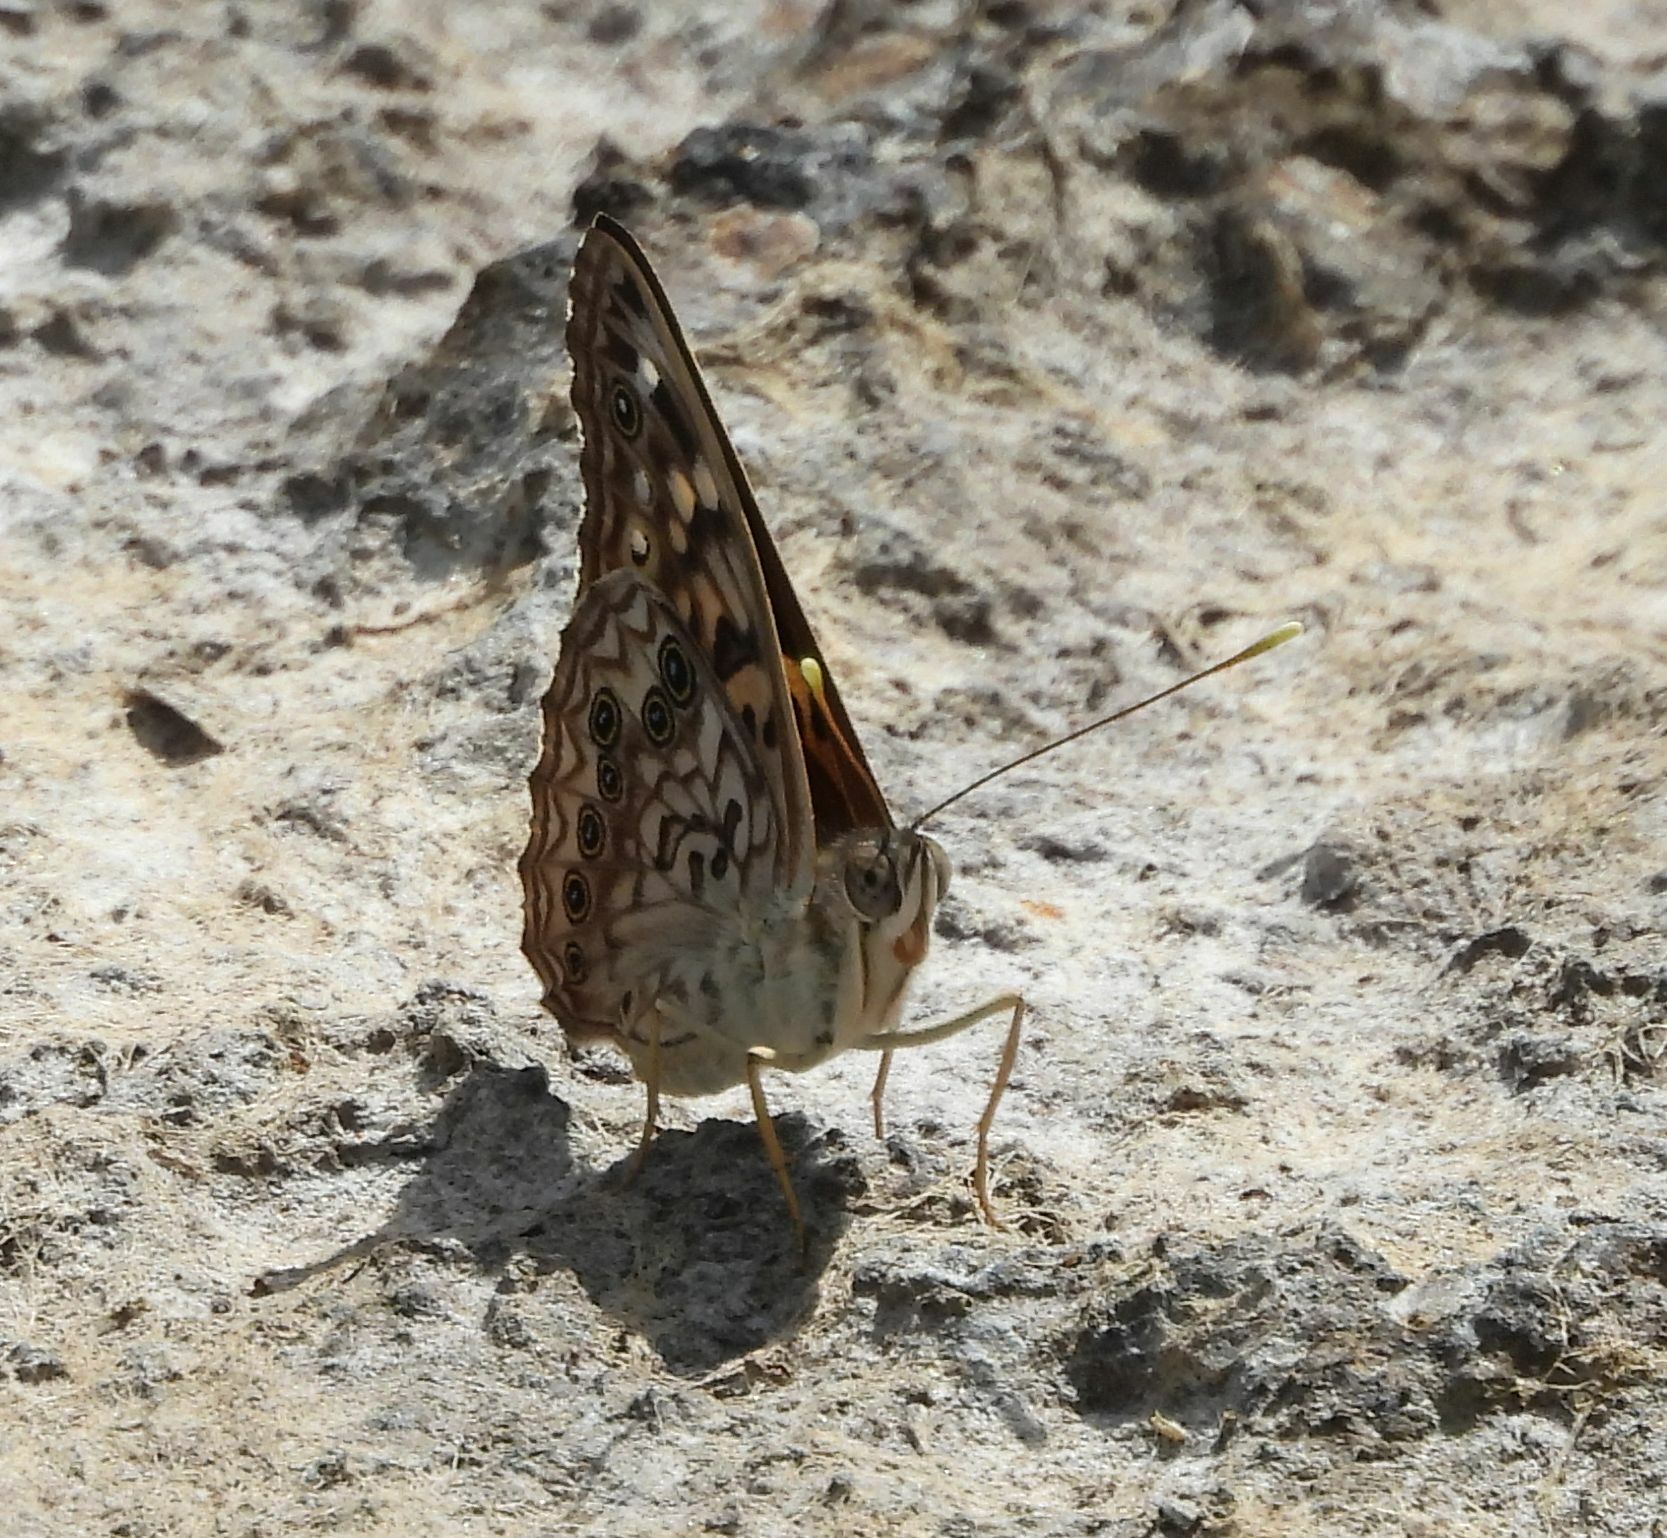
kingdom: Animalia
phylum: Arthropoda
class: Insecta
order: Lepidoptera
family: Nymphalidae
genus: Asterocampa
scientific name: Asterocampa celtis
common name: Hackberry emperor
